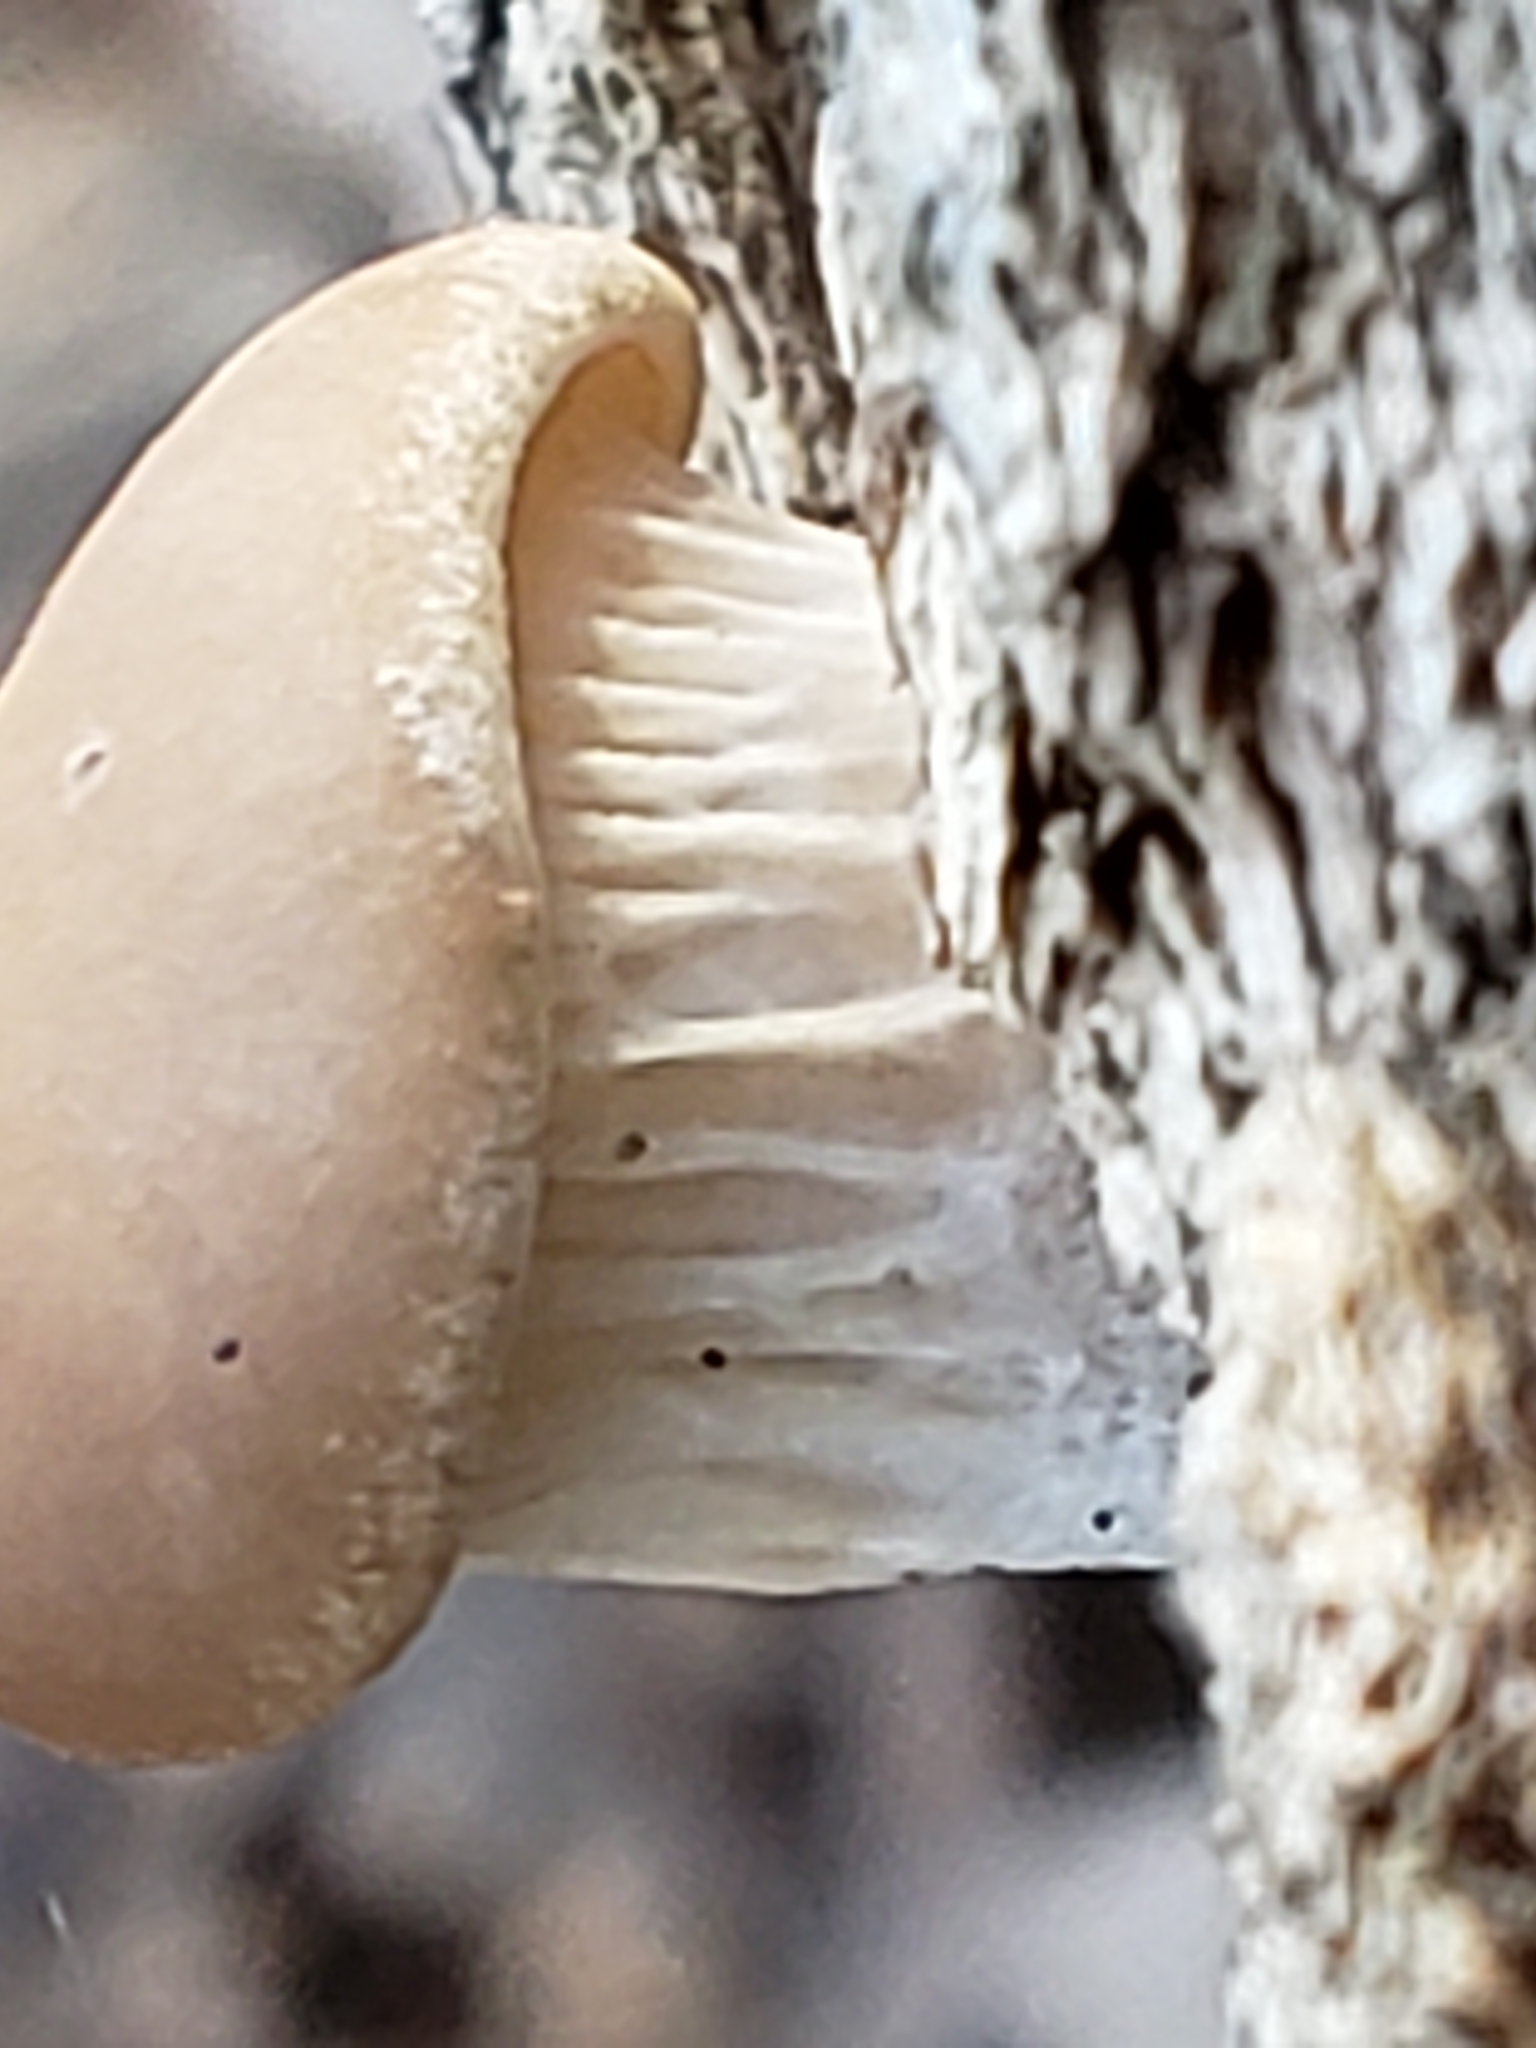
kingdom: Fungi
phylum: Basidiomycota
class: Agaricomycetes
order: Agaricales
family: Pleurotaceae
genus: Pleurotus
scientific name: Pleurotus ostreatus
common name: Oyster mushroom
